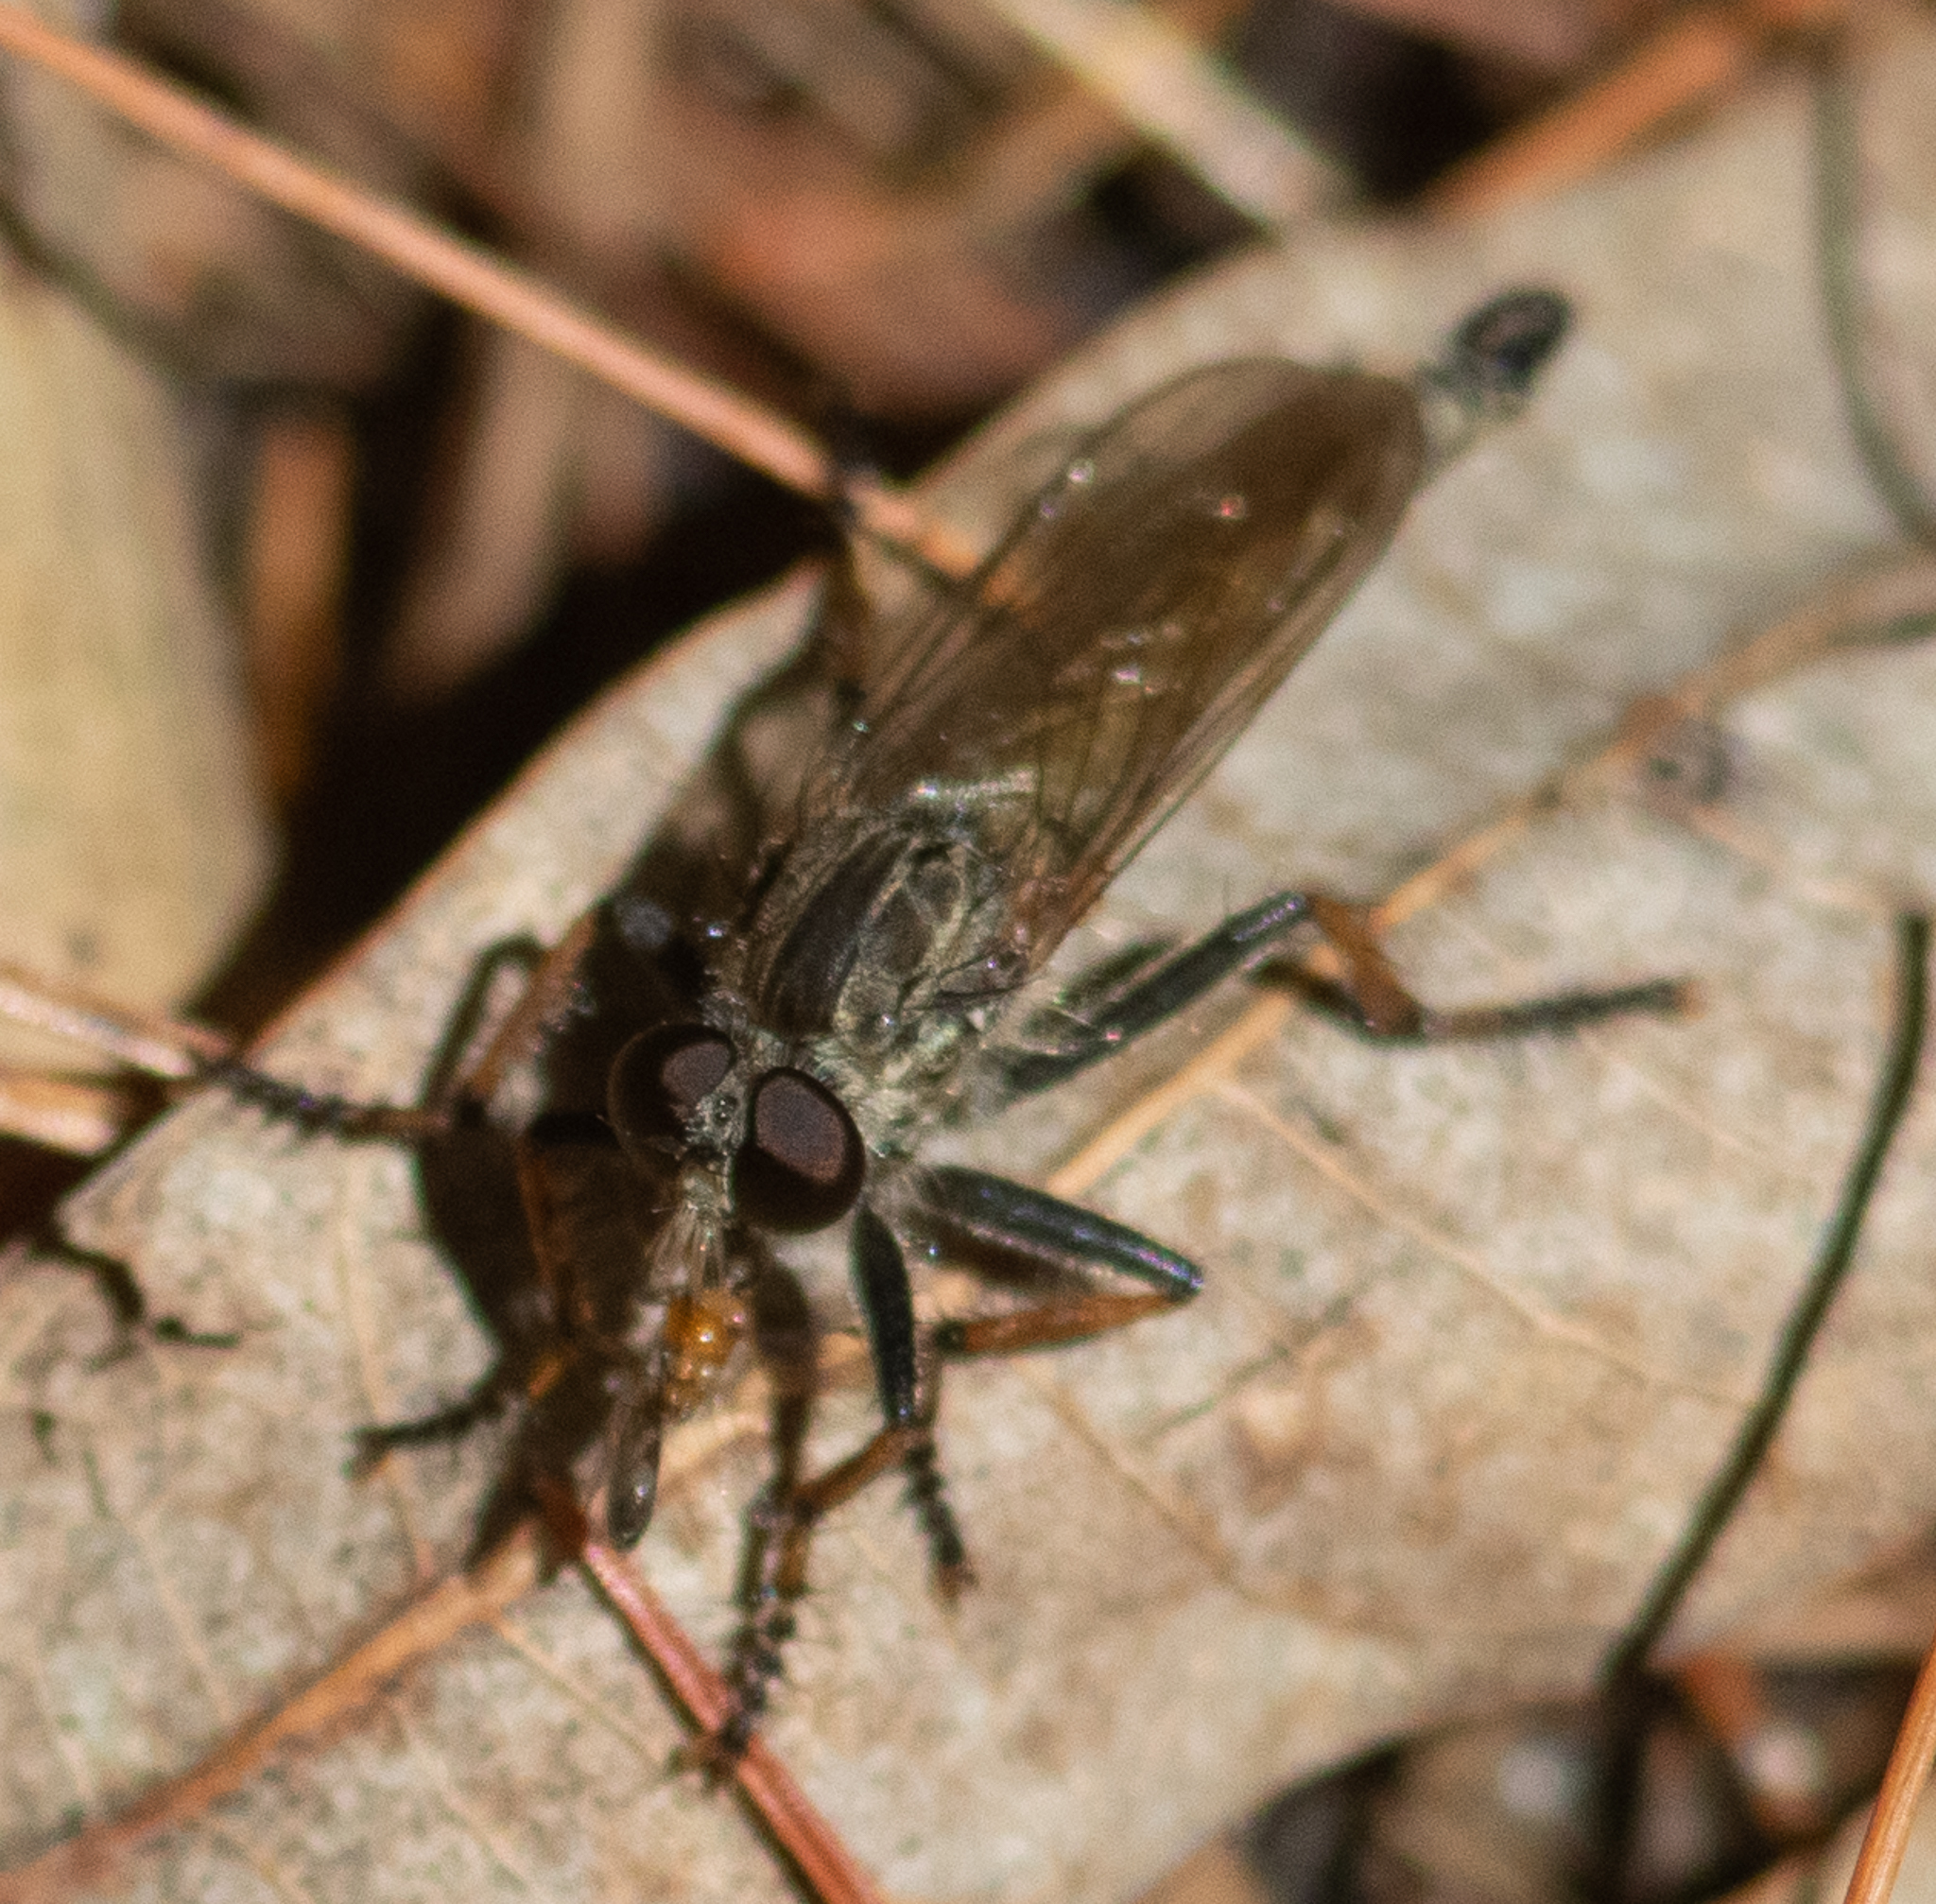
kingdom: Animalia
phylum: Arthropoda
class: Insecta
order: Diptera
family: Asilidae
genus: Machimus
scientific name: Machimus
